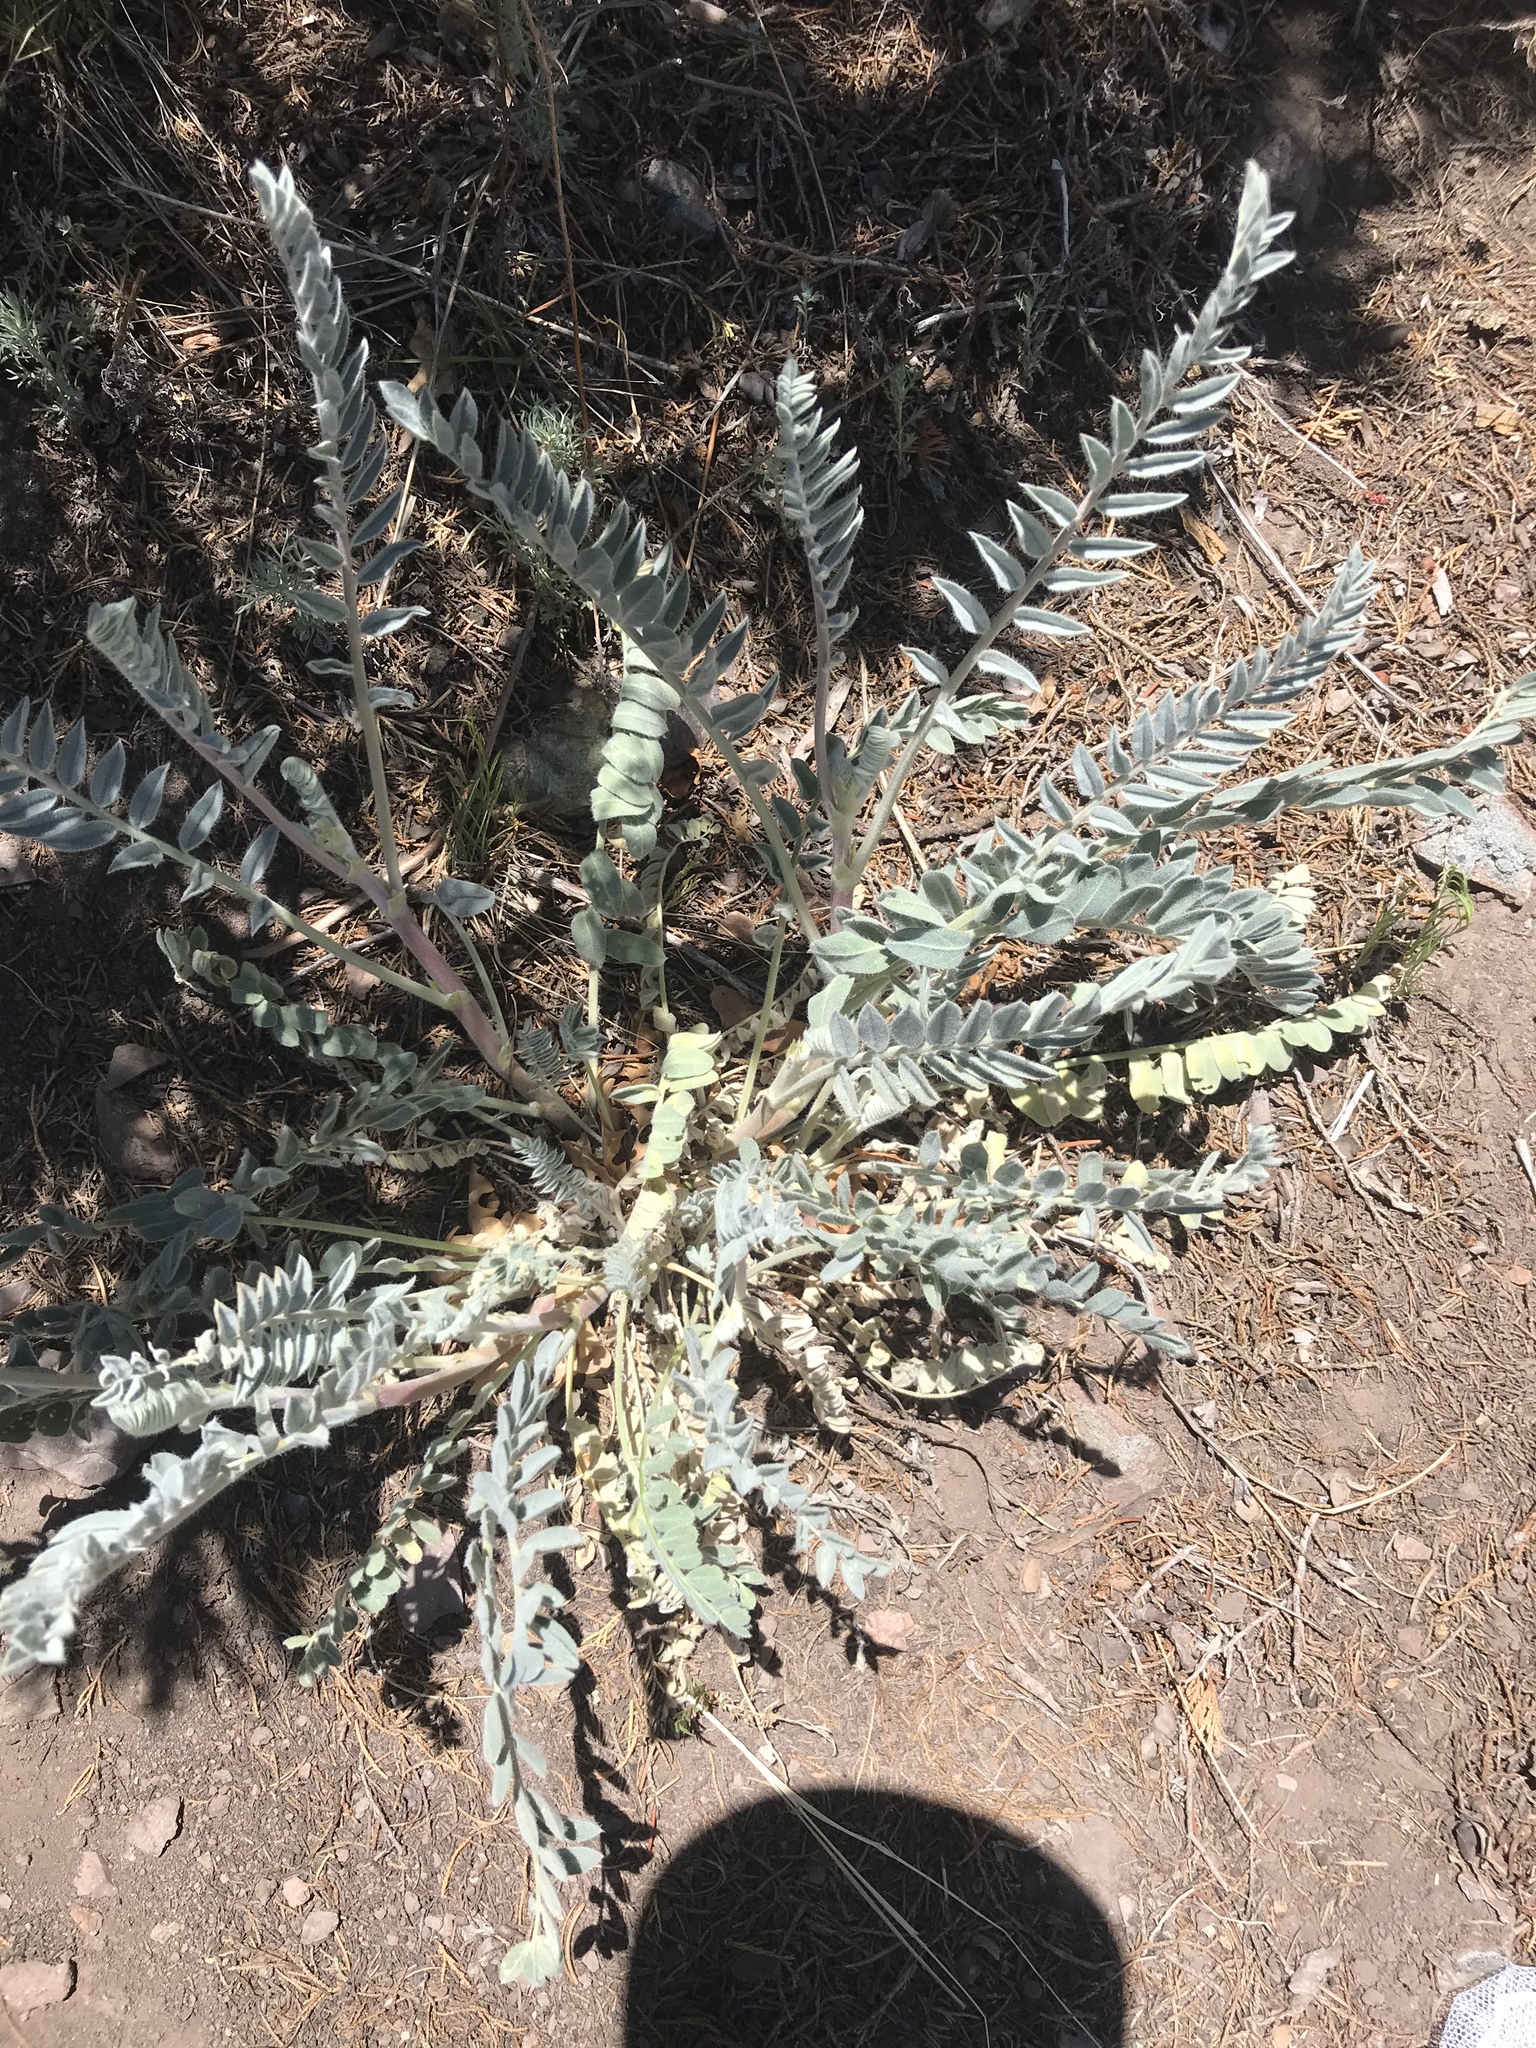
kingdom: Plantae
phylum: Tracheophyta
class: Magnoliopsida
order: Fabales
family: Fabaceae
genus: Astragalus
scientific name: Astragalus giganteus
